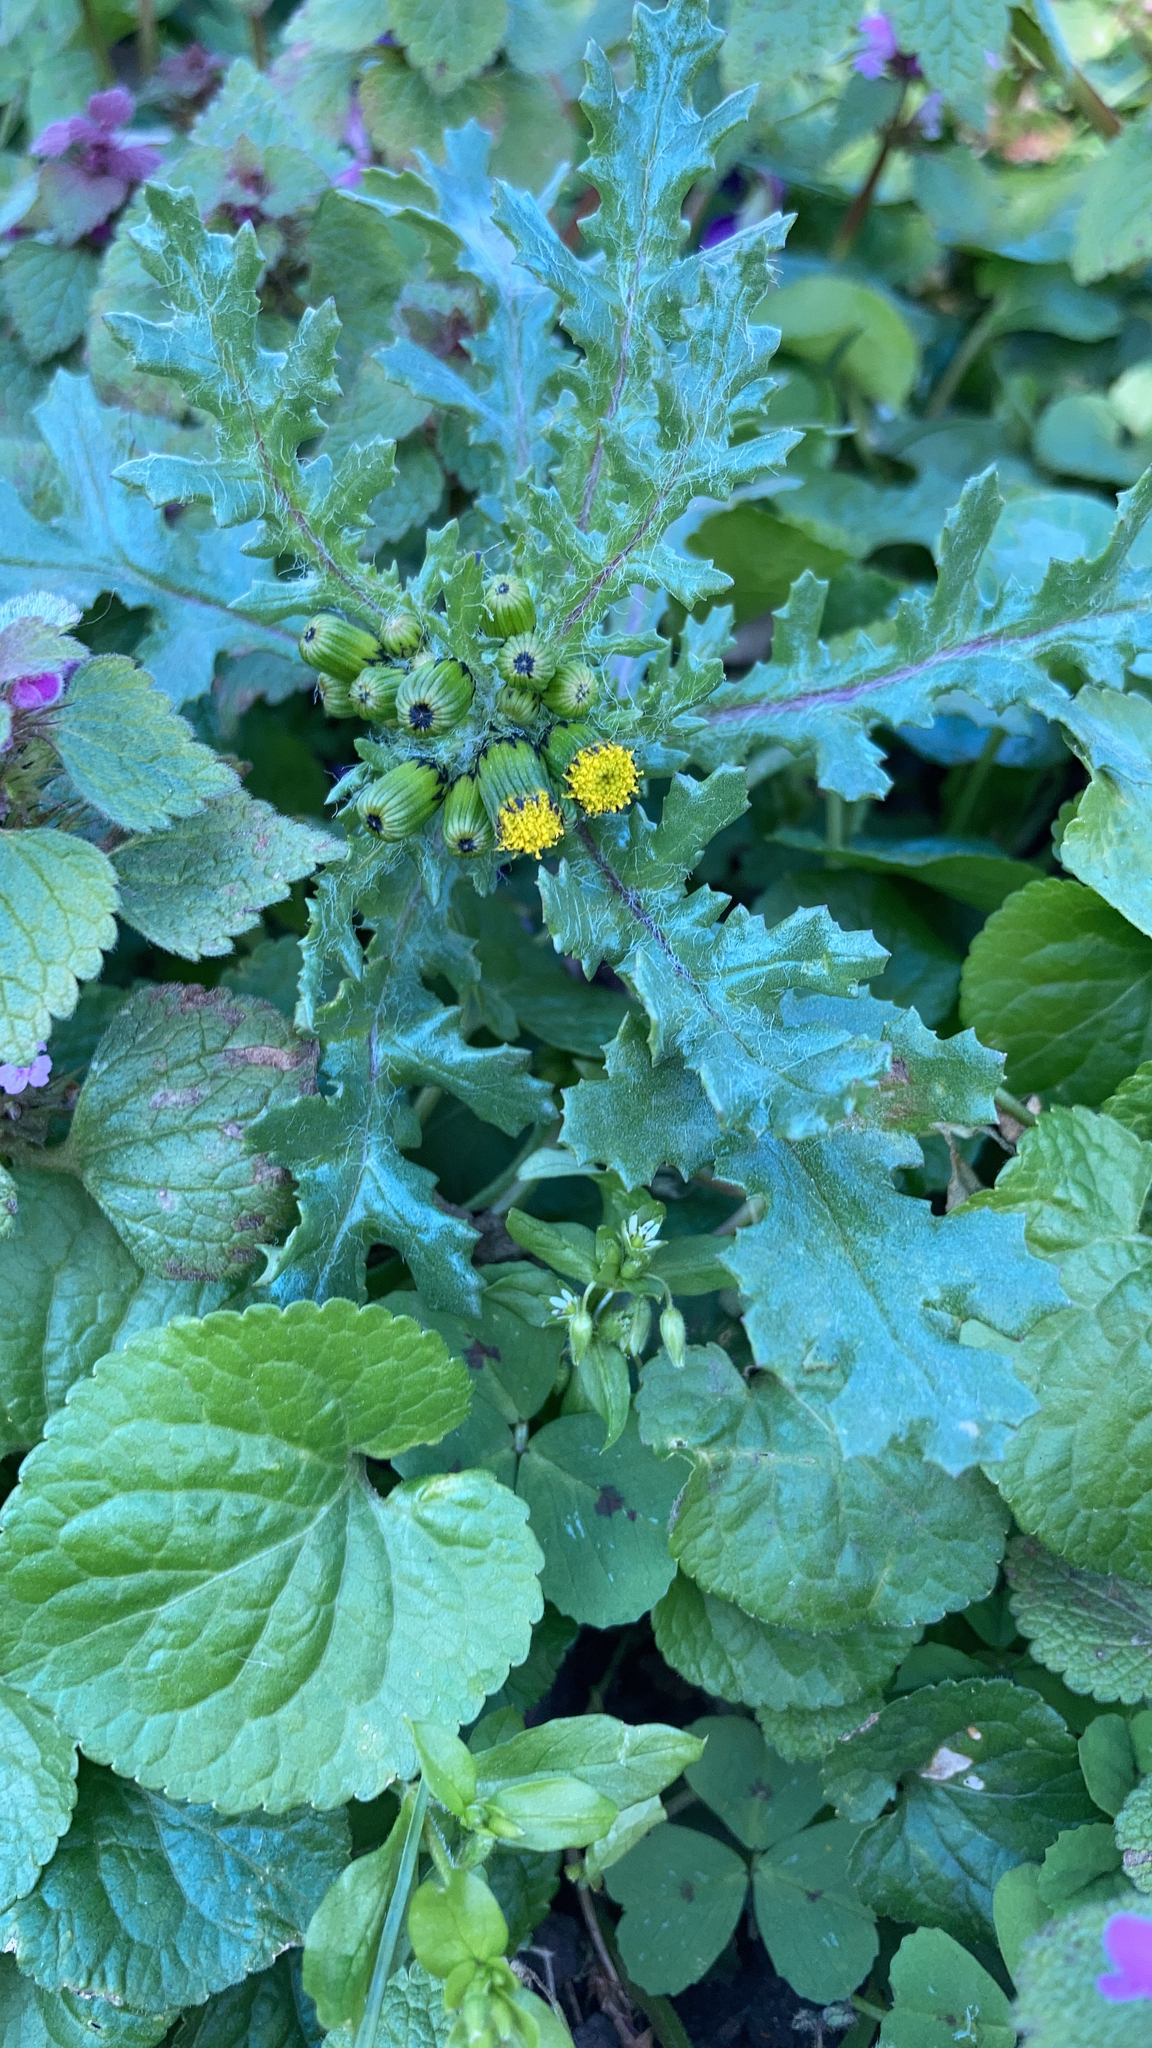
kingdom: Plantae
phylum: Tracheophyta
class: Magnoliopsida
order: Asterales
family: Asteraceae
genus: Senecio
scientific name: Senecio vulgaris
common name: Old-man-in-the-spring
